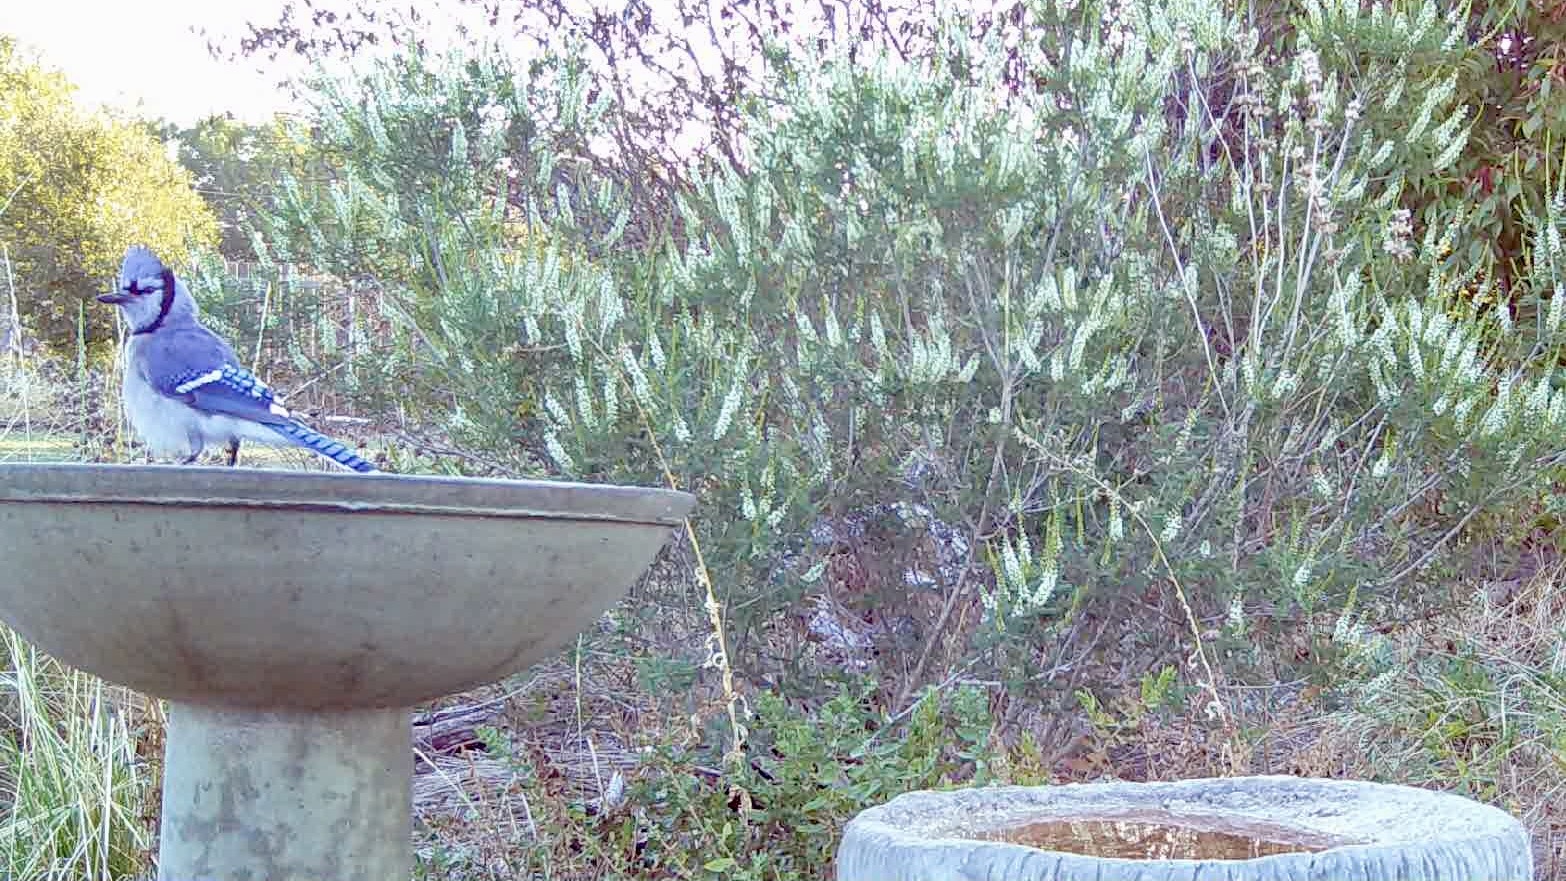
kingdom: Animalia
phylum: Chordata
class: Aves
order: Passeriformes
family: Corvidae
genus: Cyanocitta
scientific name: Cyanocitta cristata
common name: Blue jay
